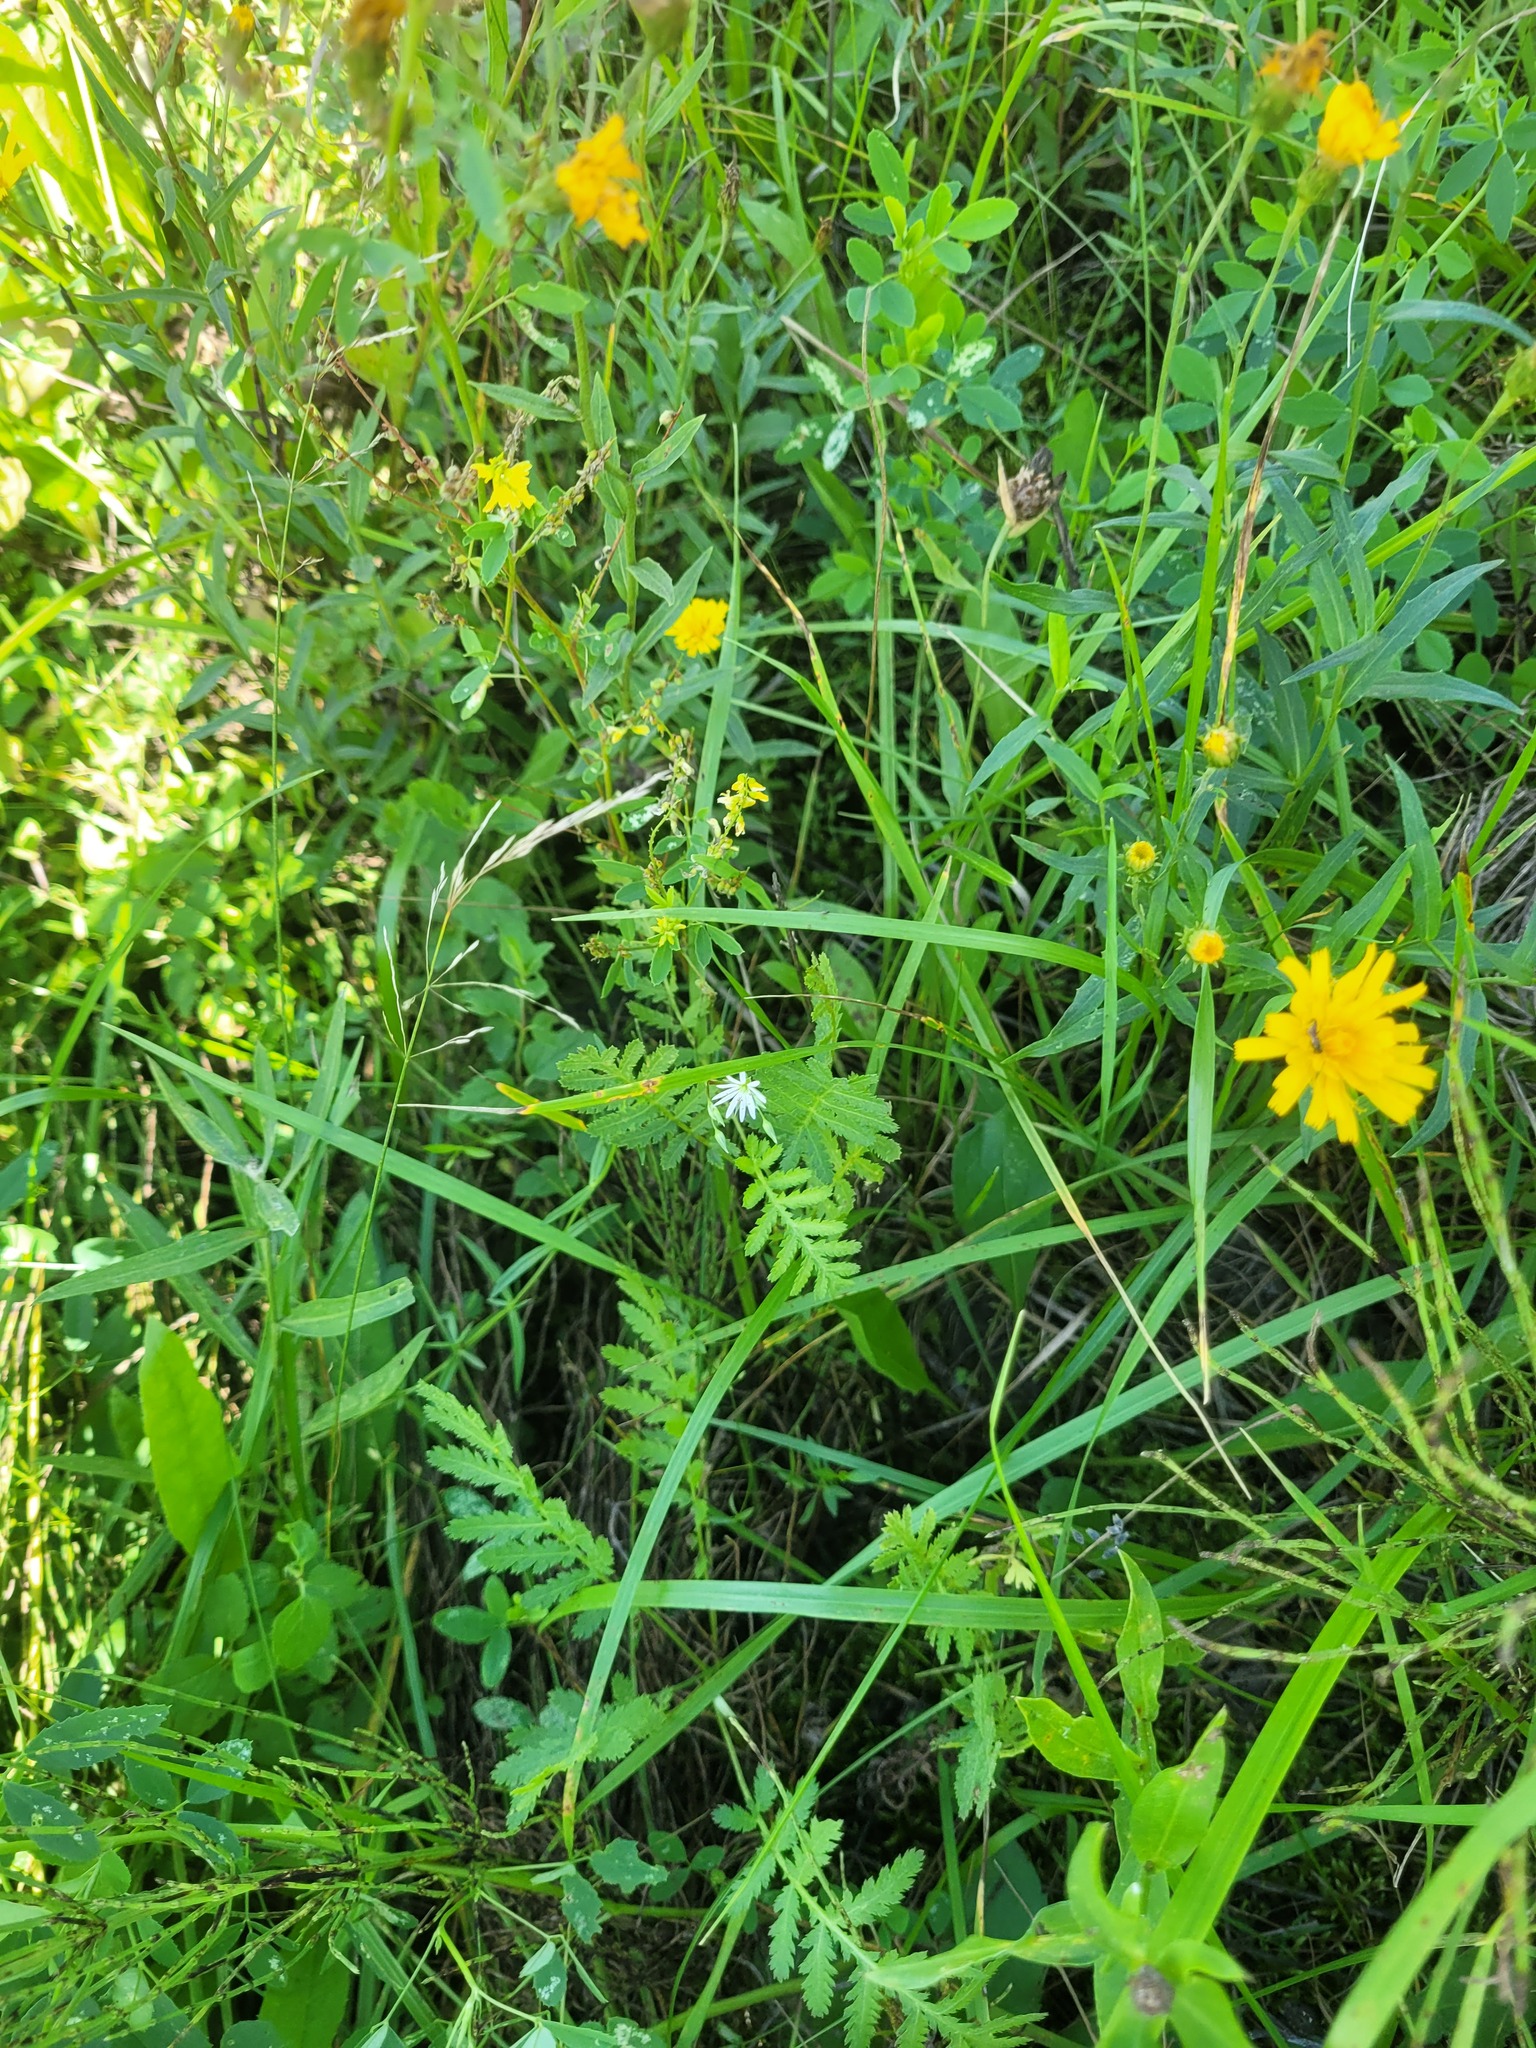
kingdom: Plantae
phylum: Tracheophyta
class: Magnoliopsida
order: Caryophyllales
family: Caryophyllaceae
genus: Stellaria
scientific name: Stellaria graminea
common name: Grass-like starwort
